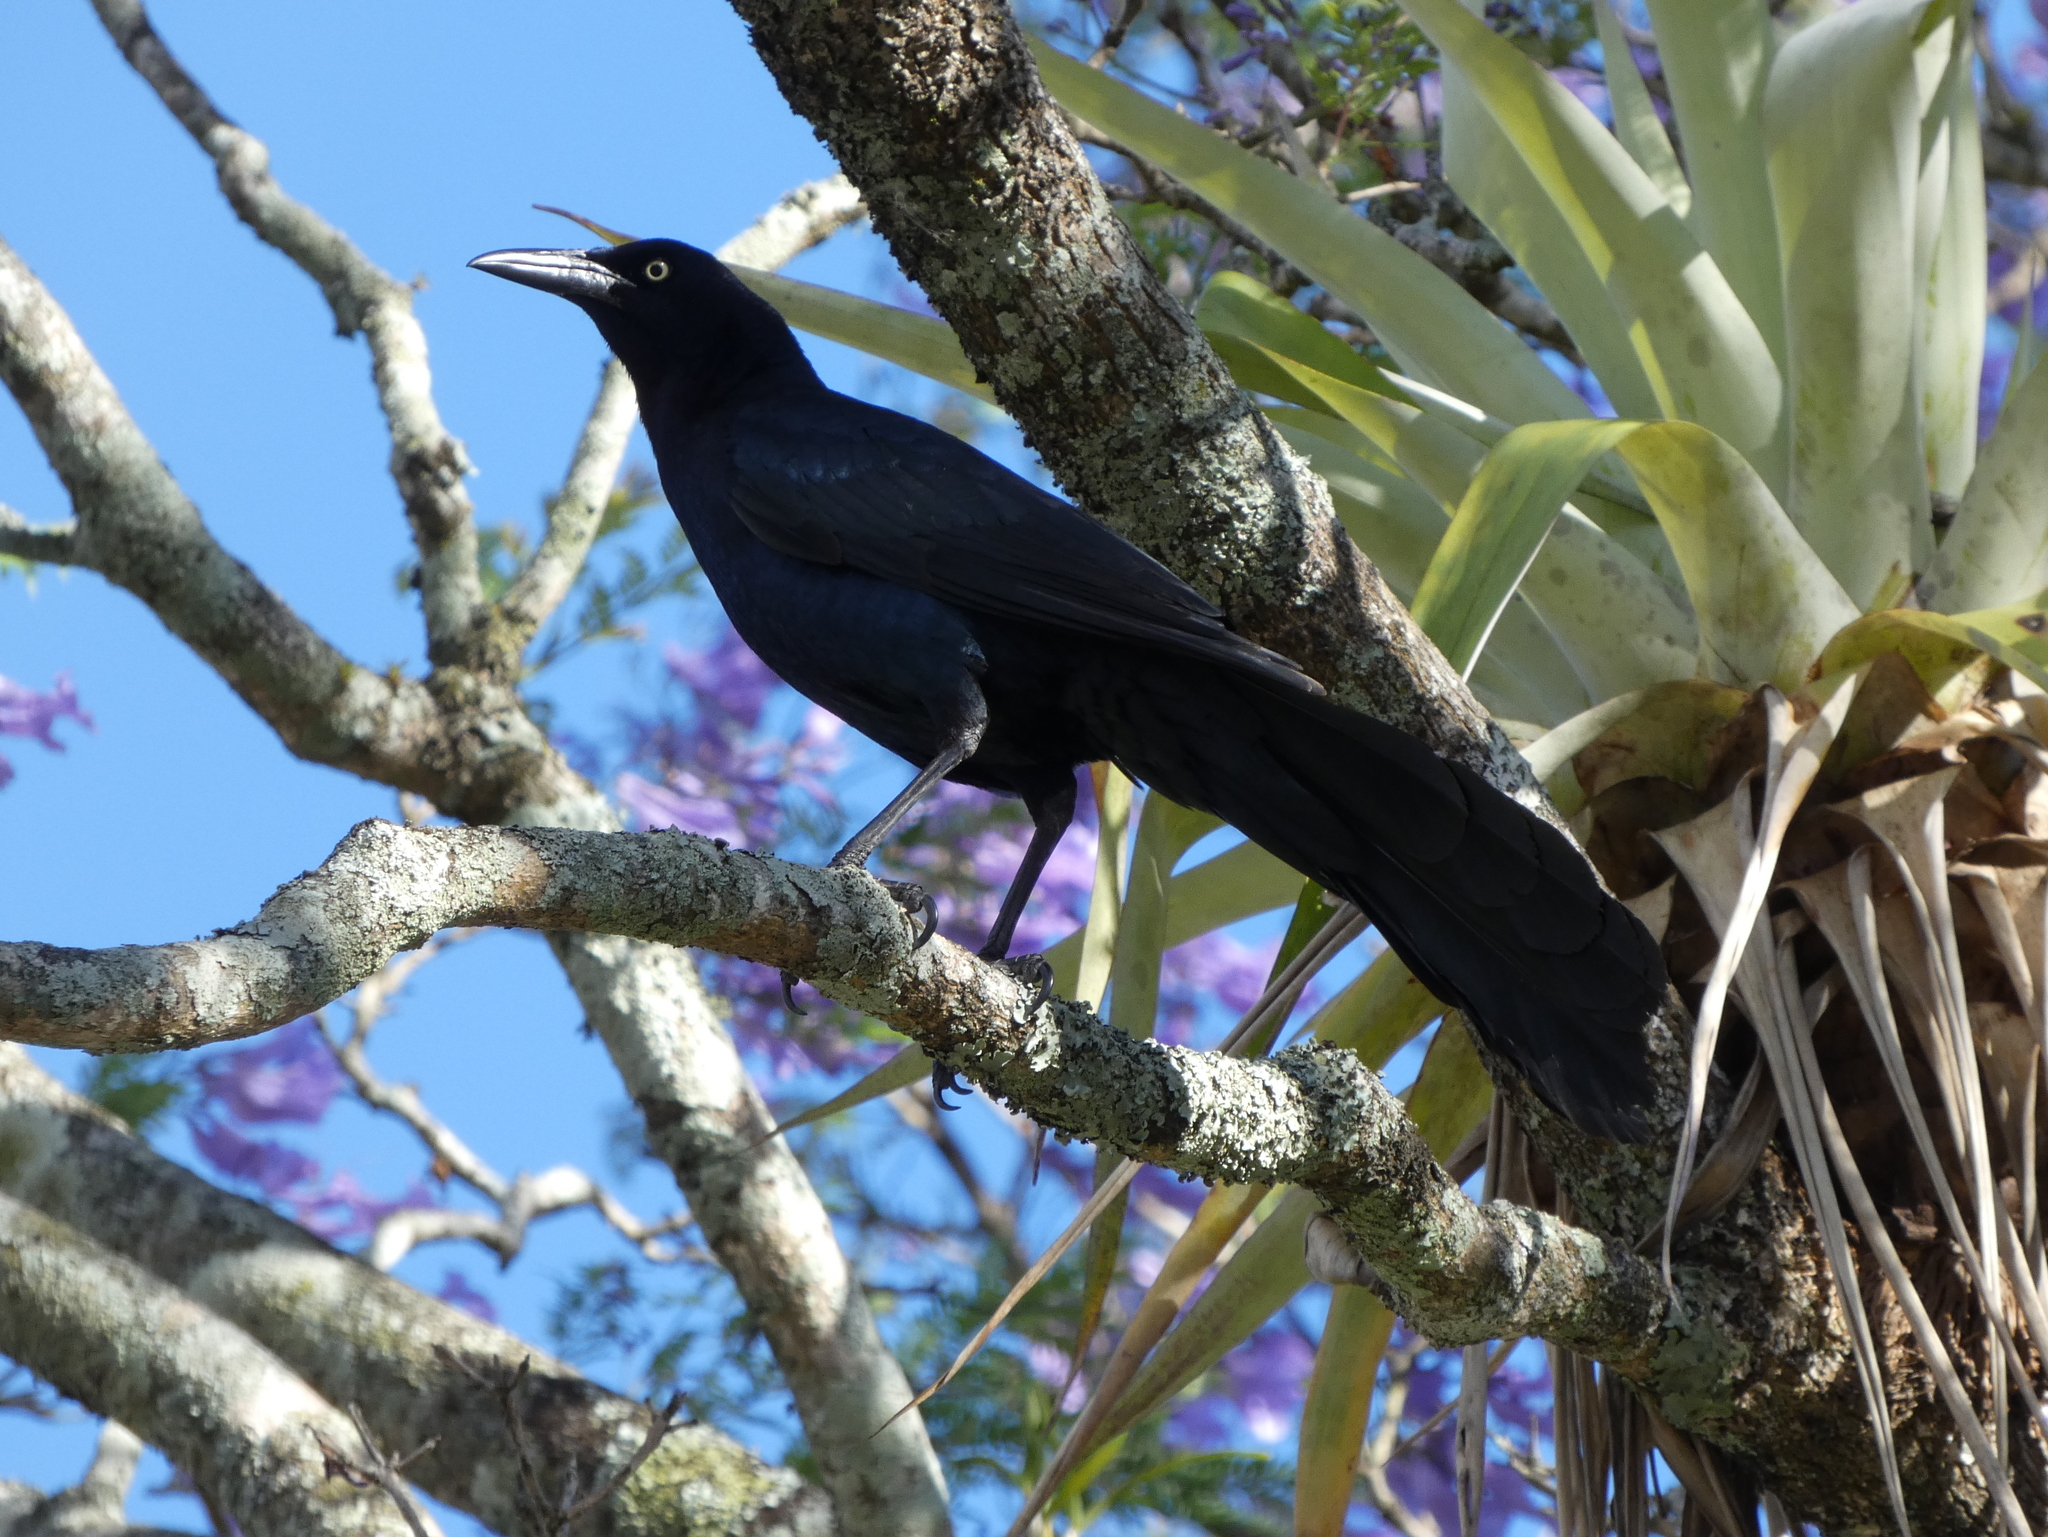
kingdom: Animalia
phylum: Chordata
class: Aves
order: Passeriformes
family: Icteridae
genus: Quiscalus
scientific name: Quiscalus mexicanus
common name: Great-tailed grackle
